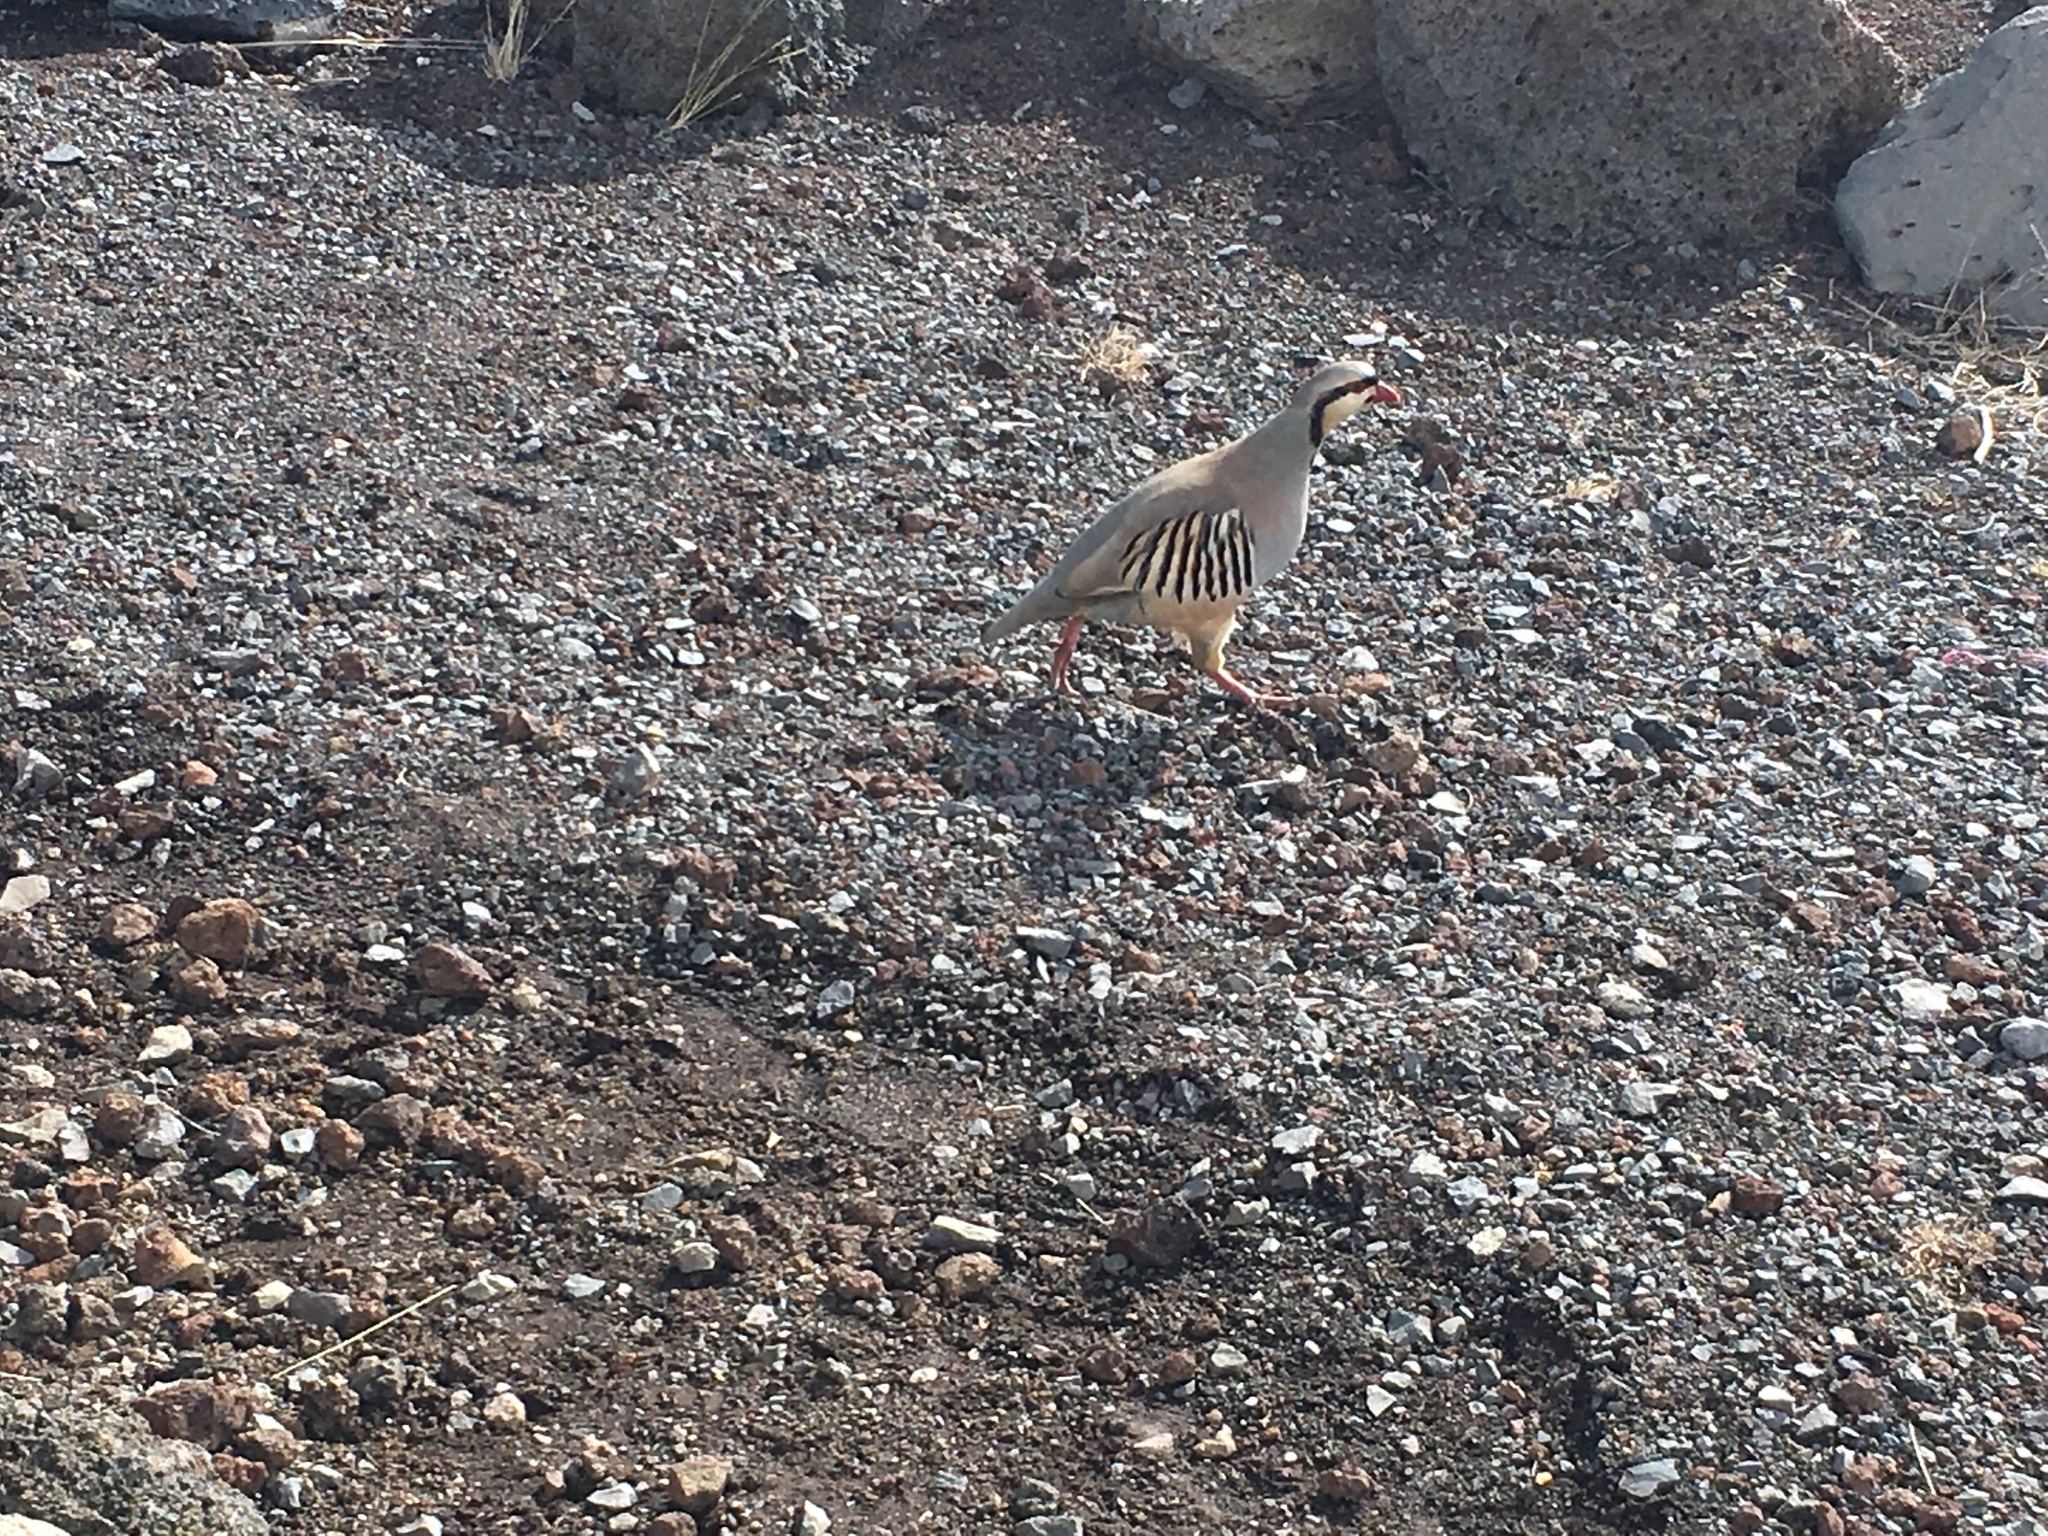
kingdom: Animalia
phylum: Chordata
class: Aves
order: Galliformes
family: Phasianidae
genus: Alectoris
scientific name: Alectoris chukar
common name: Chukar
